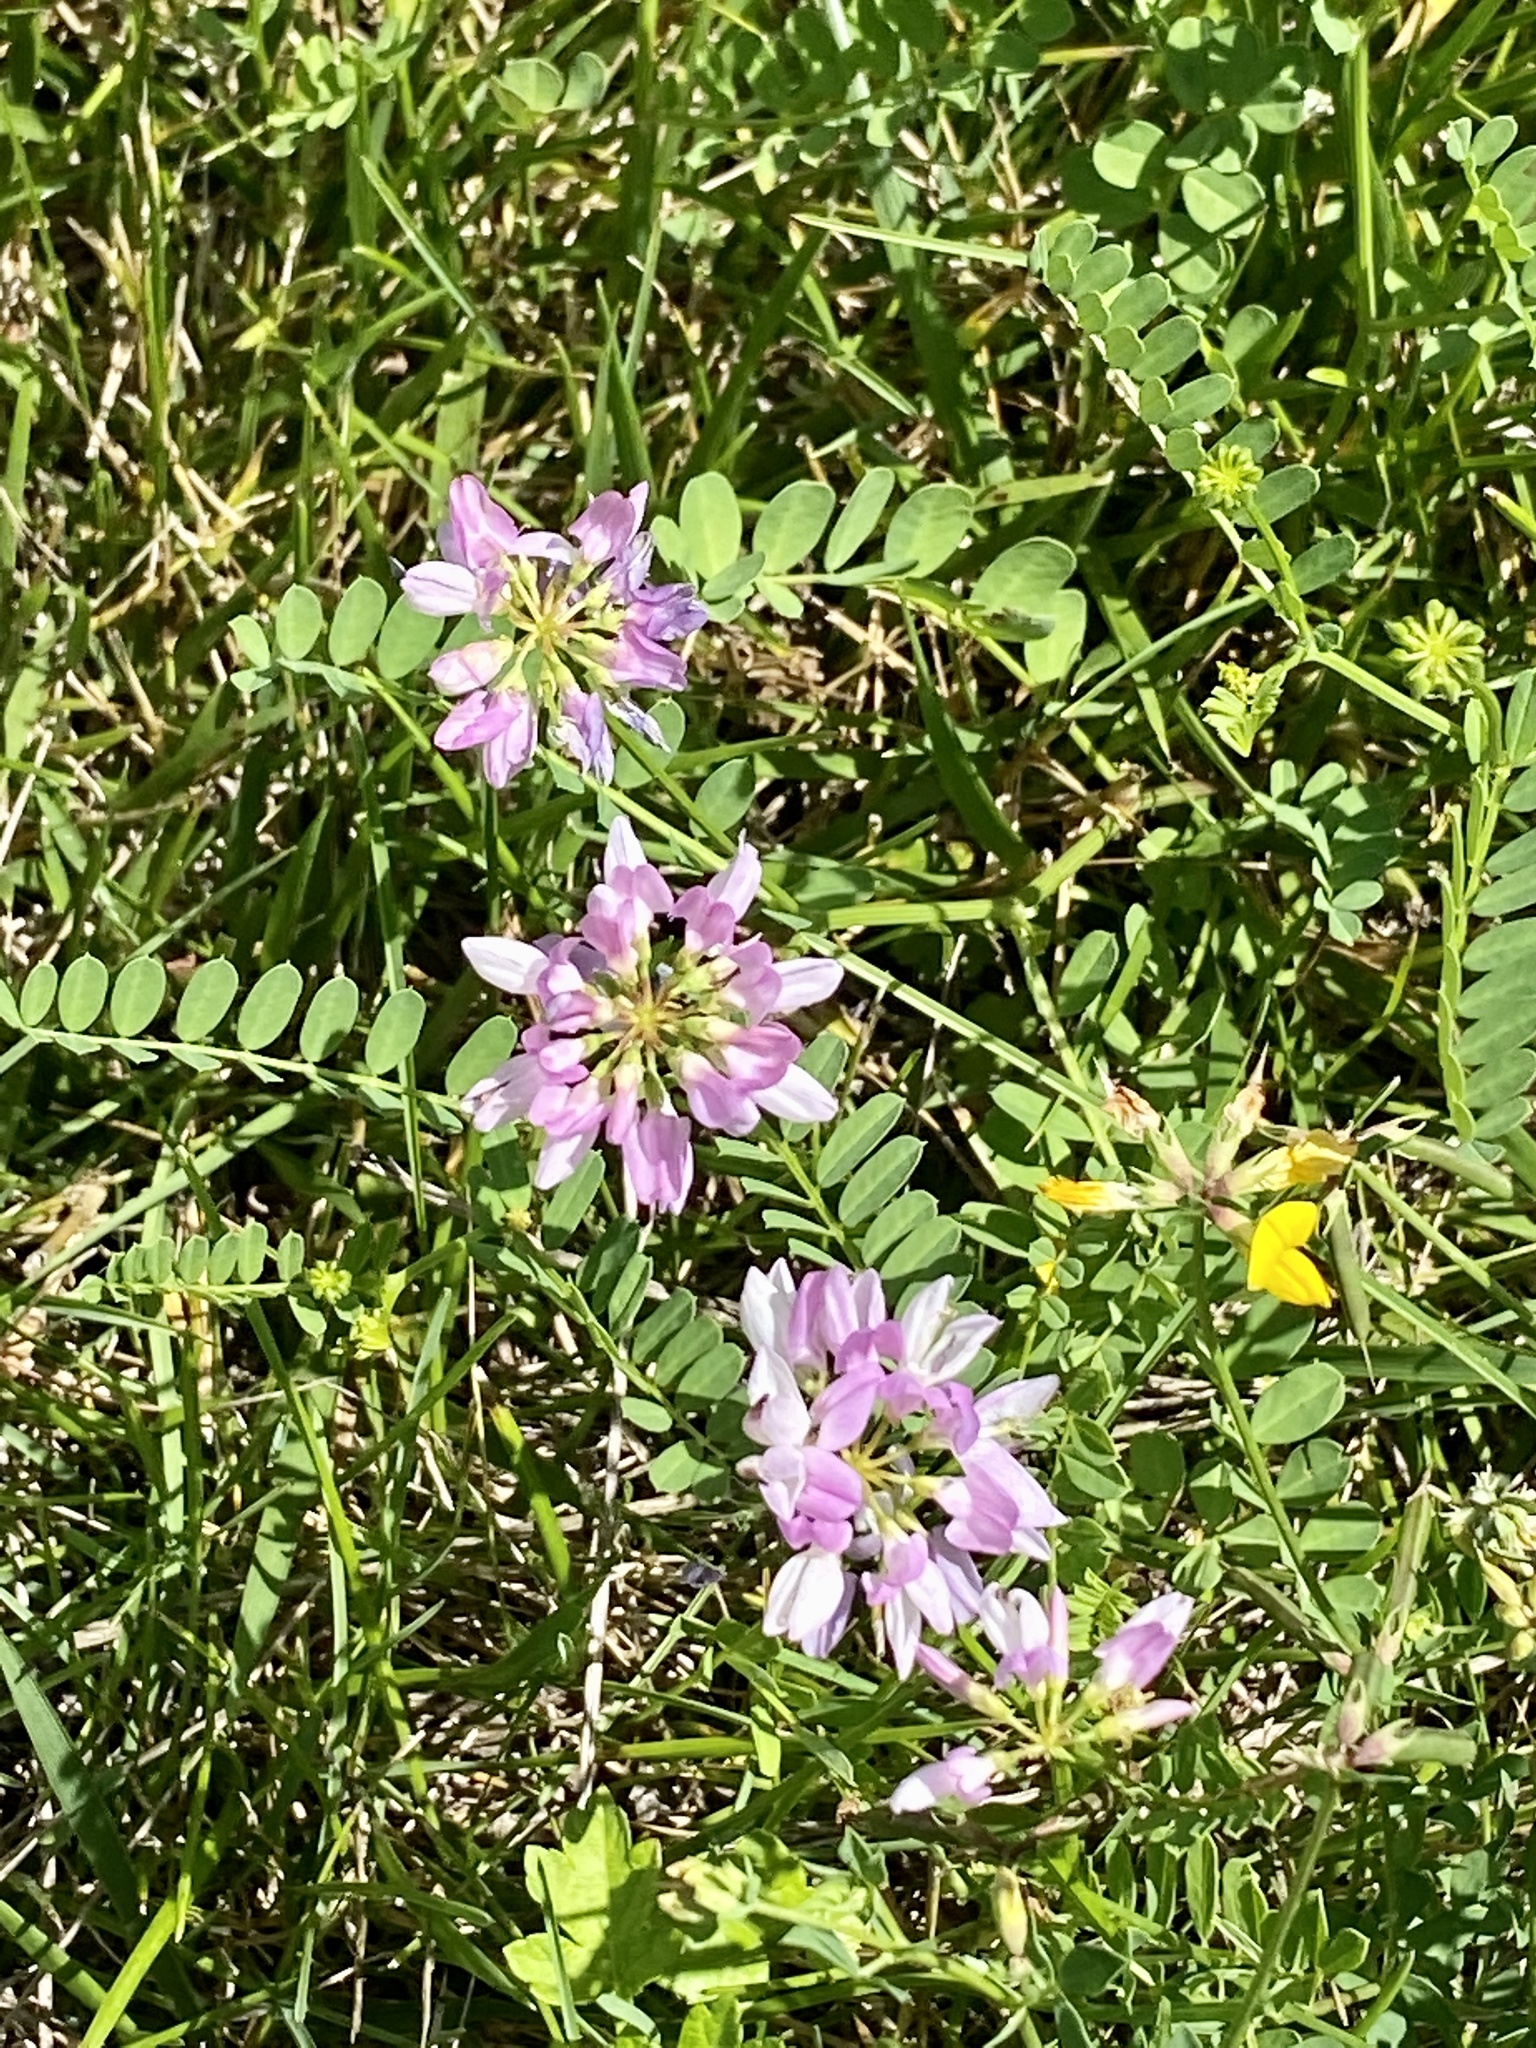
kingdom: Plantae
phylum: Tracheophyta
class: Magnoliopsida
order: Fabales
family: Fabaceae
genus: Coronilla
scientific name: Coronilla varia
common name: Crownvetch
